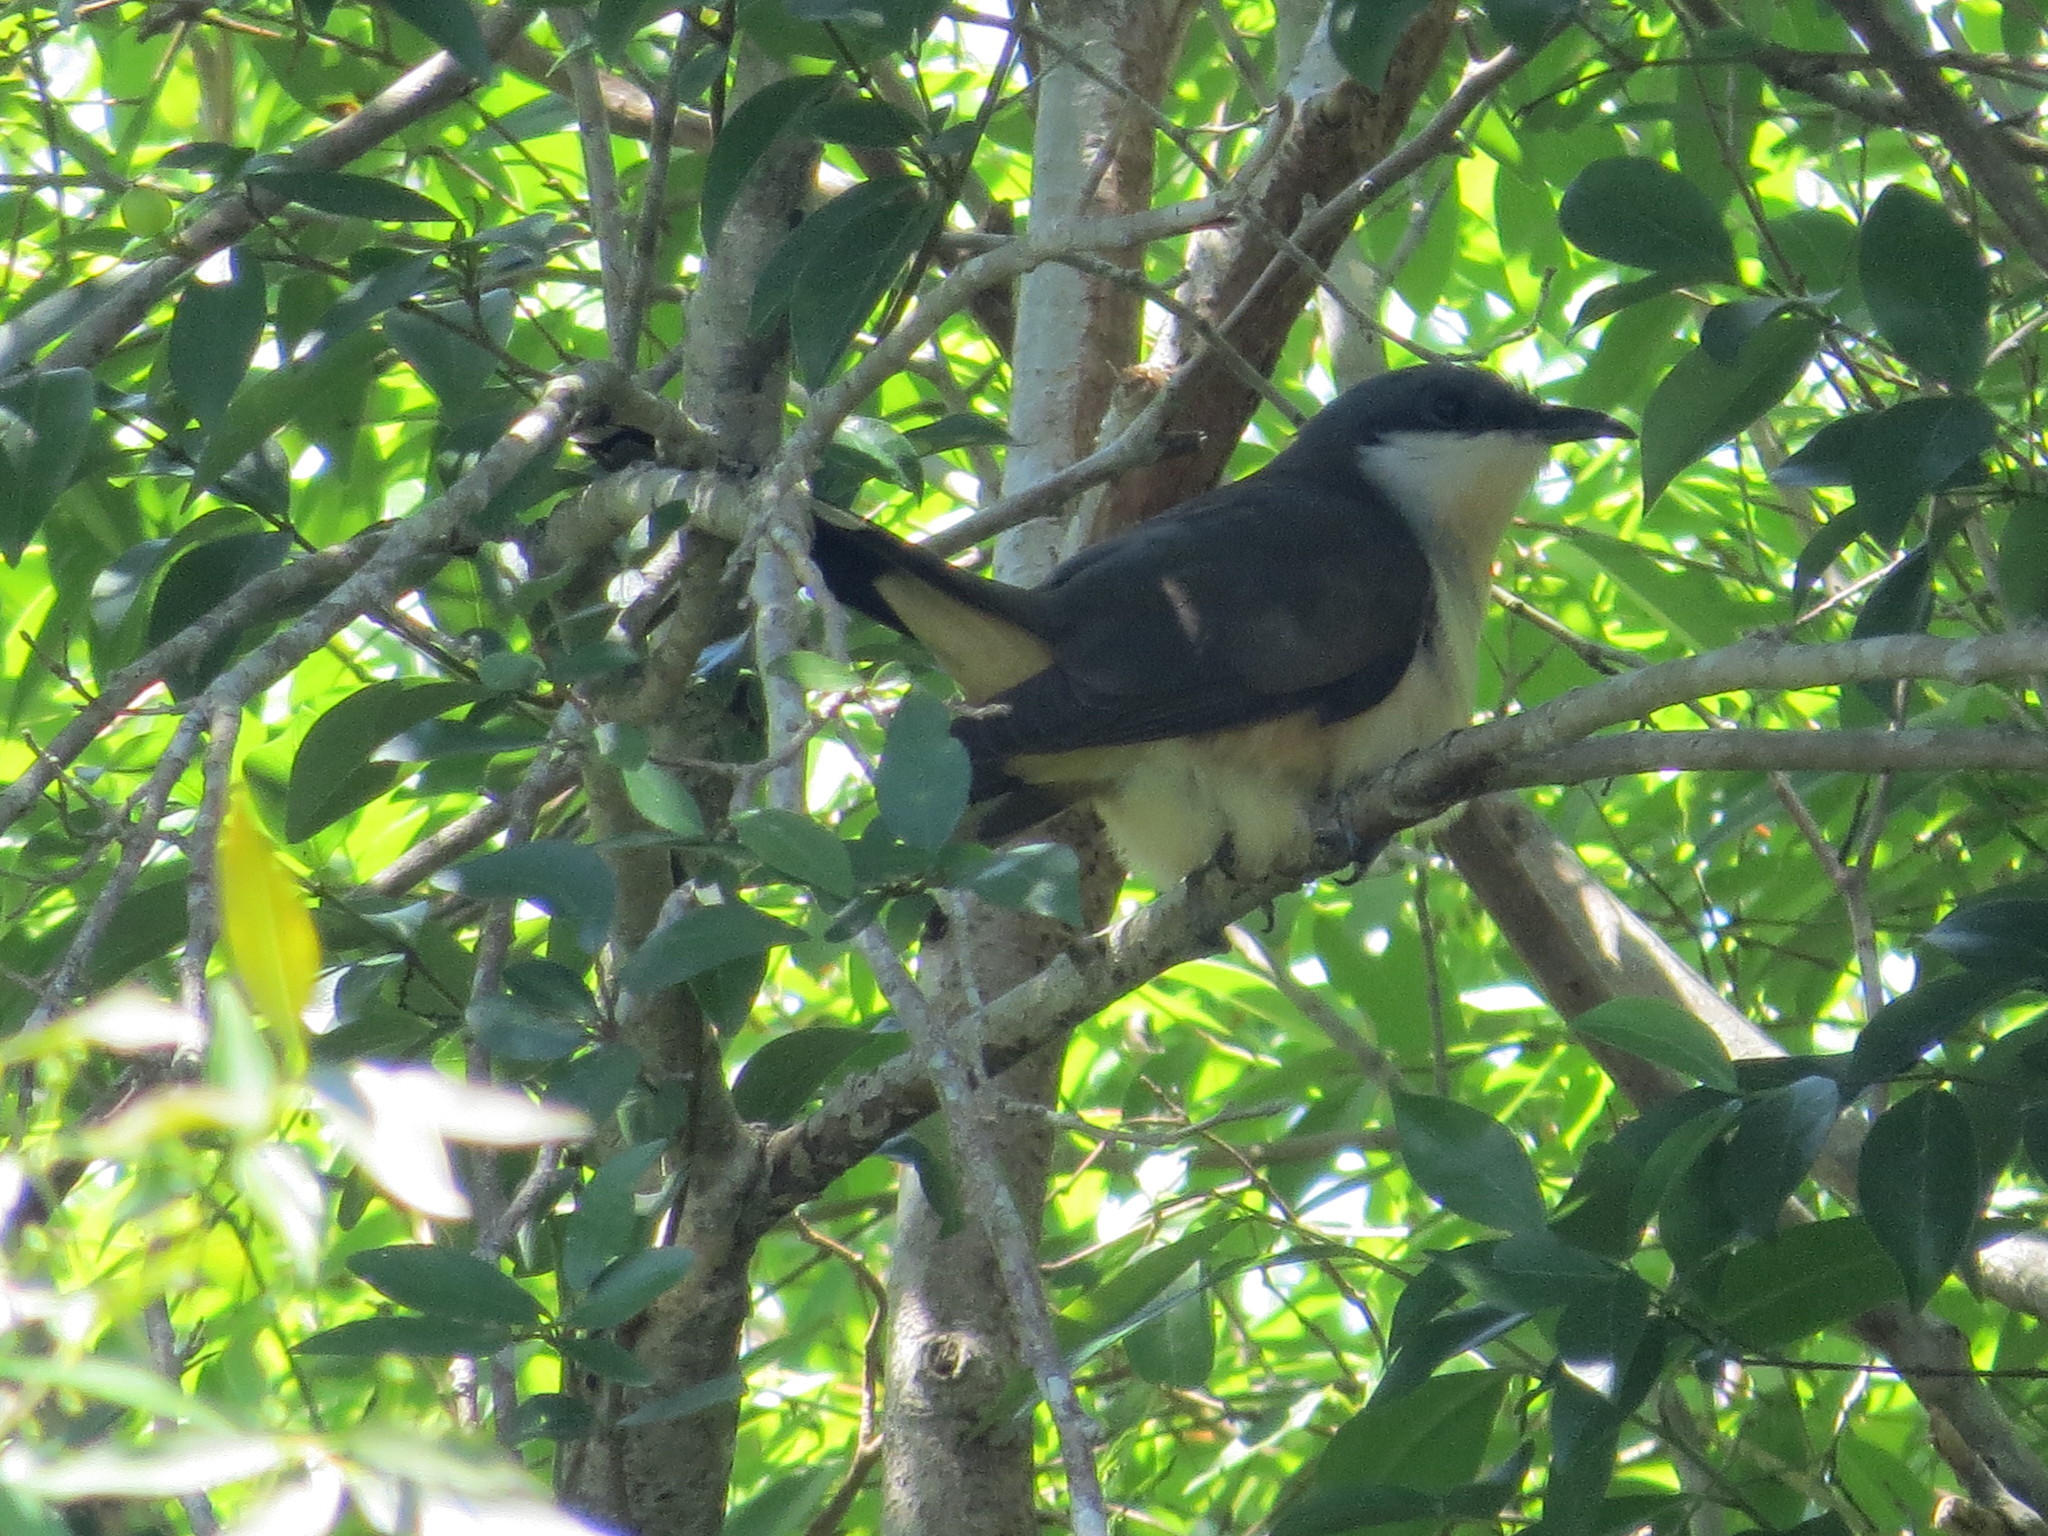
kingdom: Animalia
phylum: Chordata
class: Aves
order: Cuculiformes
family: Cuculidae
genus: Coccyzus
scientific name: Coccyzus melacoryphus
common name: Dark-billed cuckoo
